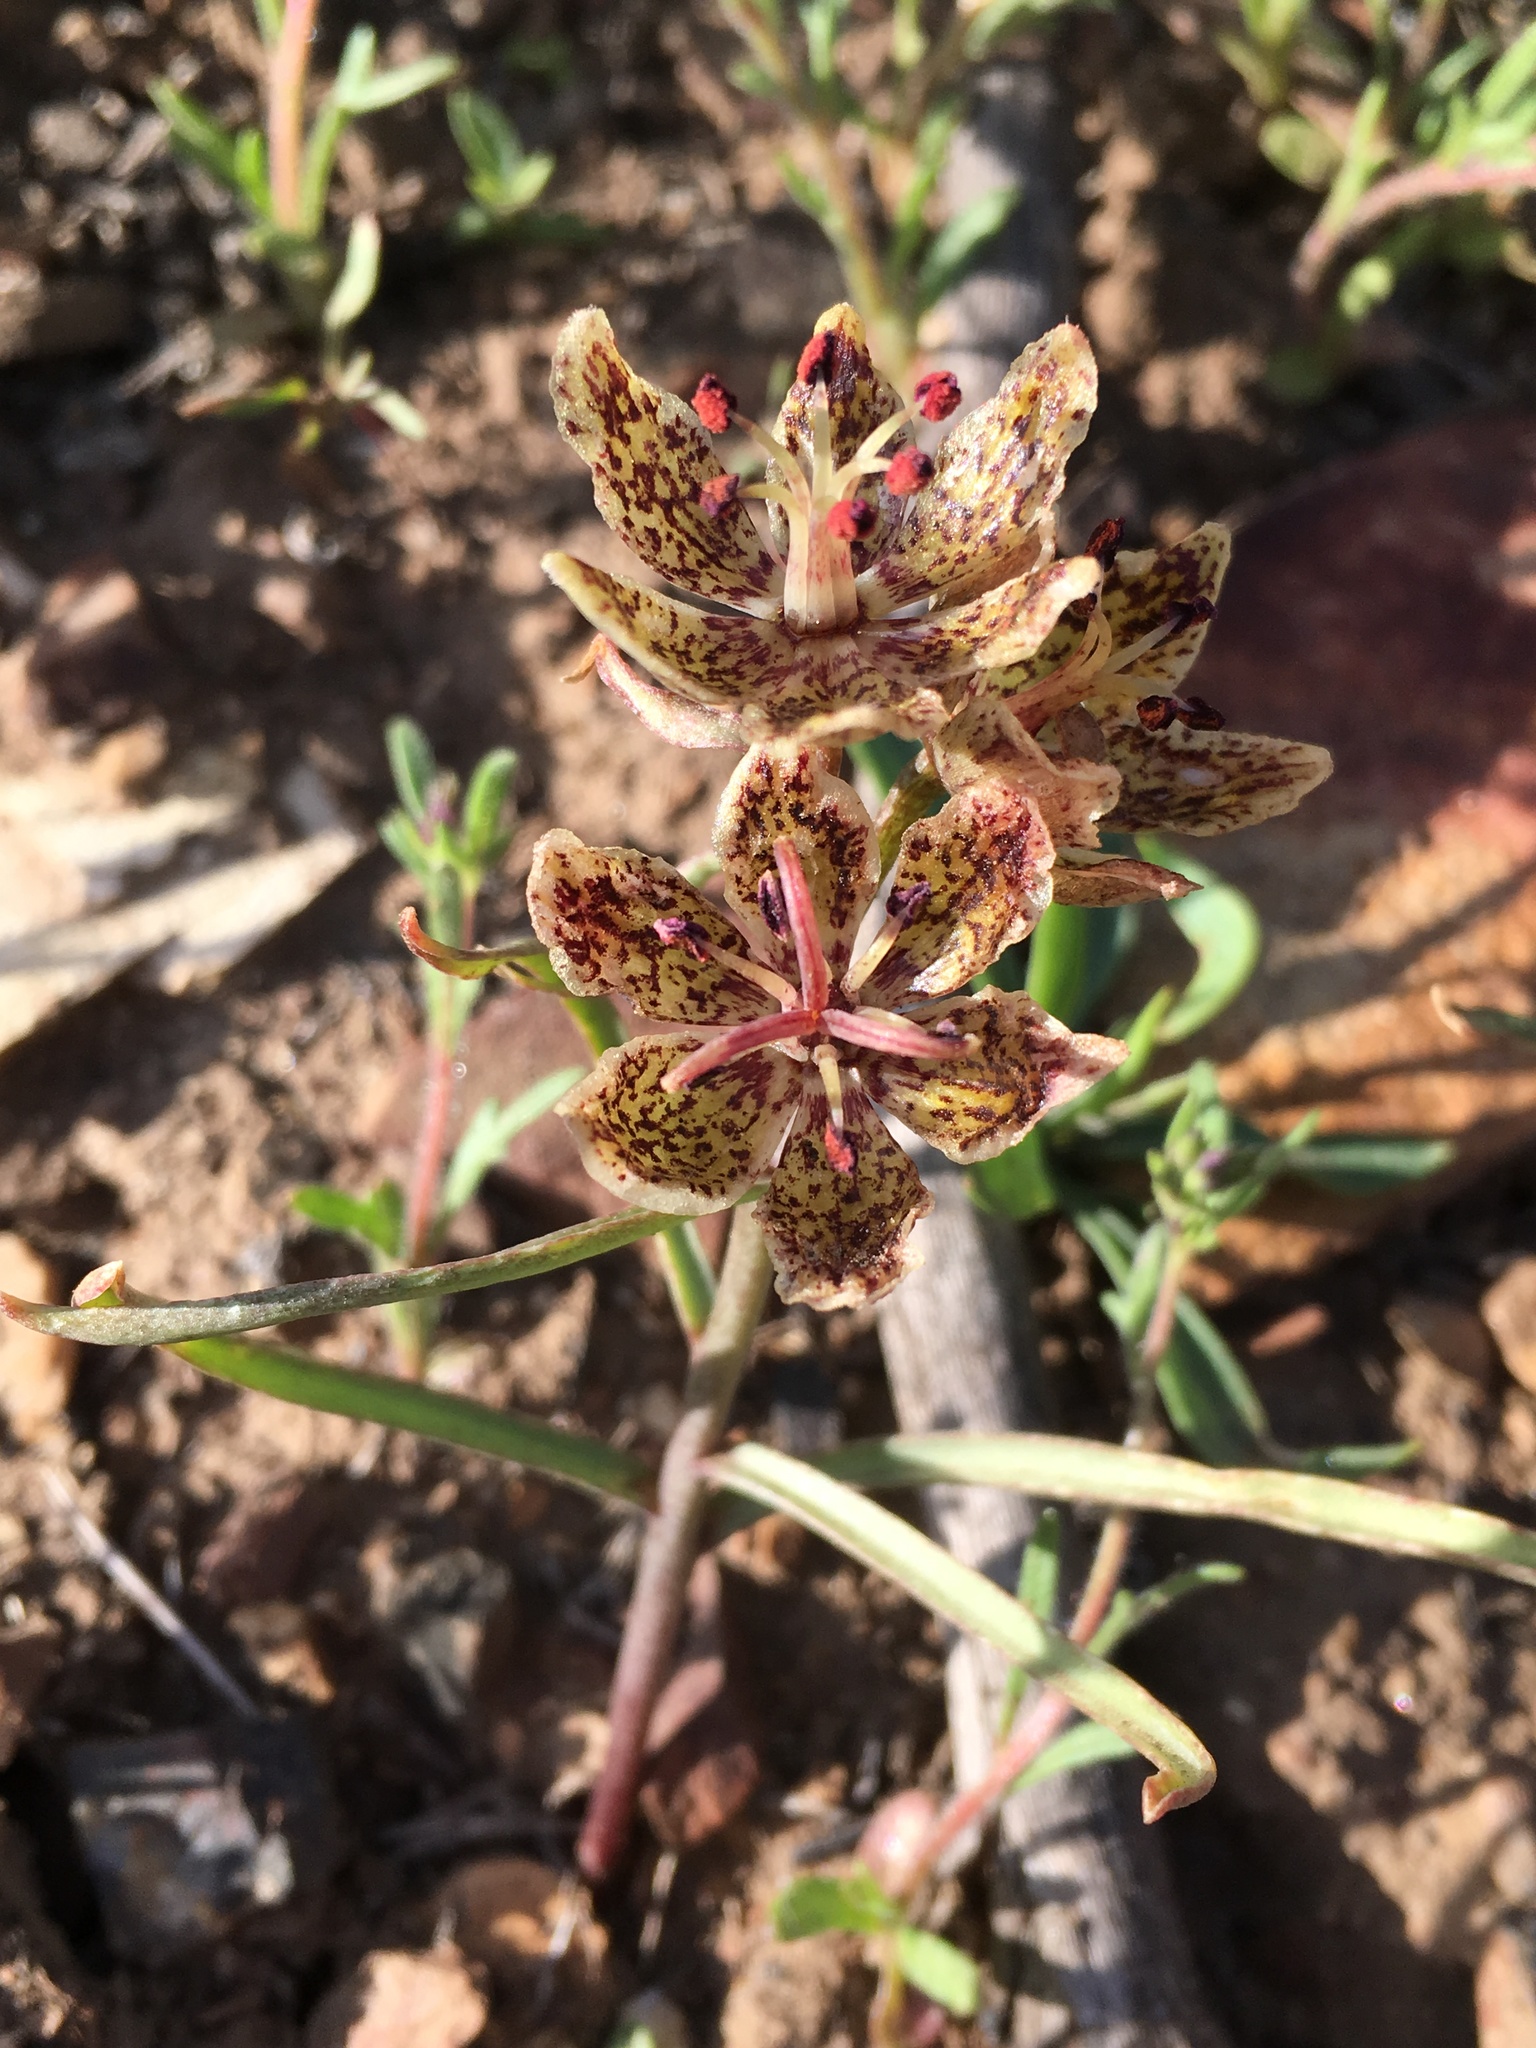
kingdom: Plantae
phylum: Tracheophyta
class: Liliopsida
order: Liliales
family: Liliaceae
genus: Fritillaria
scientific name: Fritillaria pinetorum
